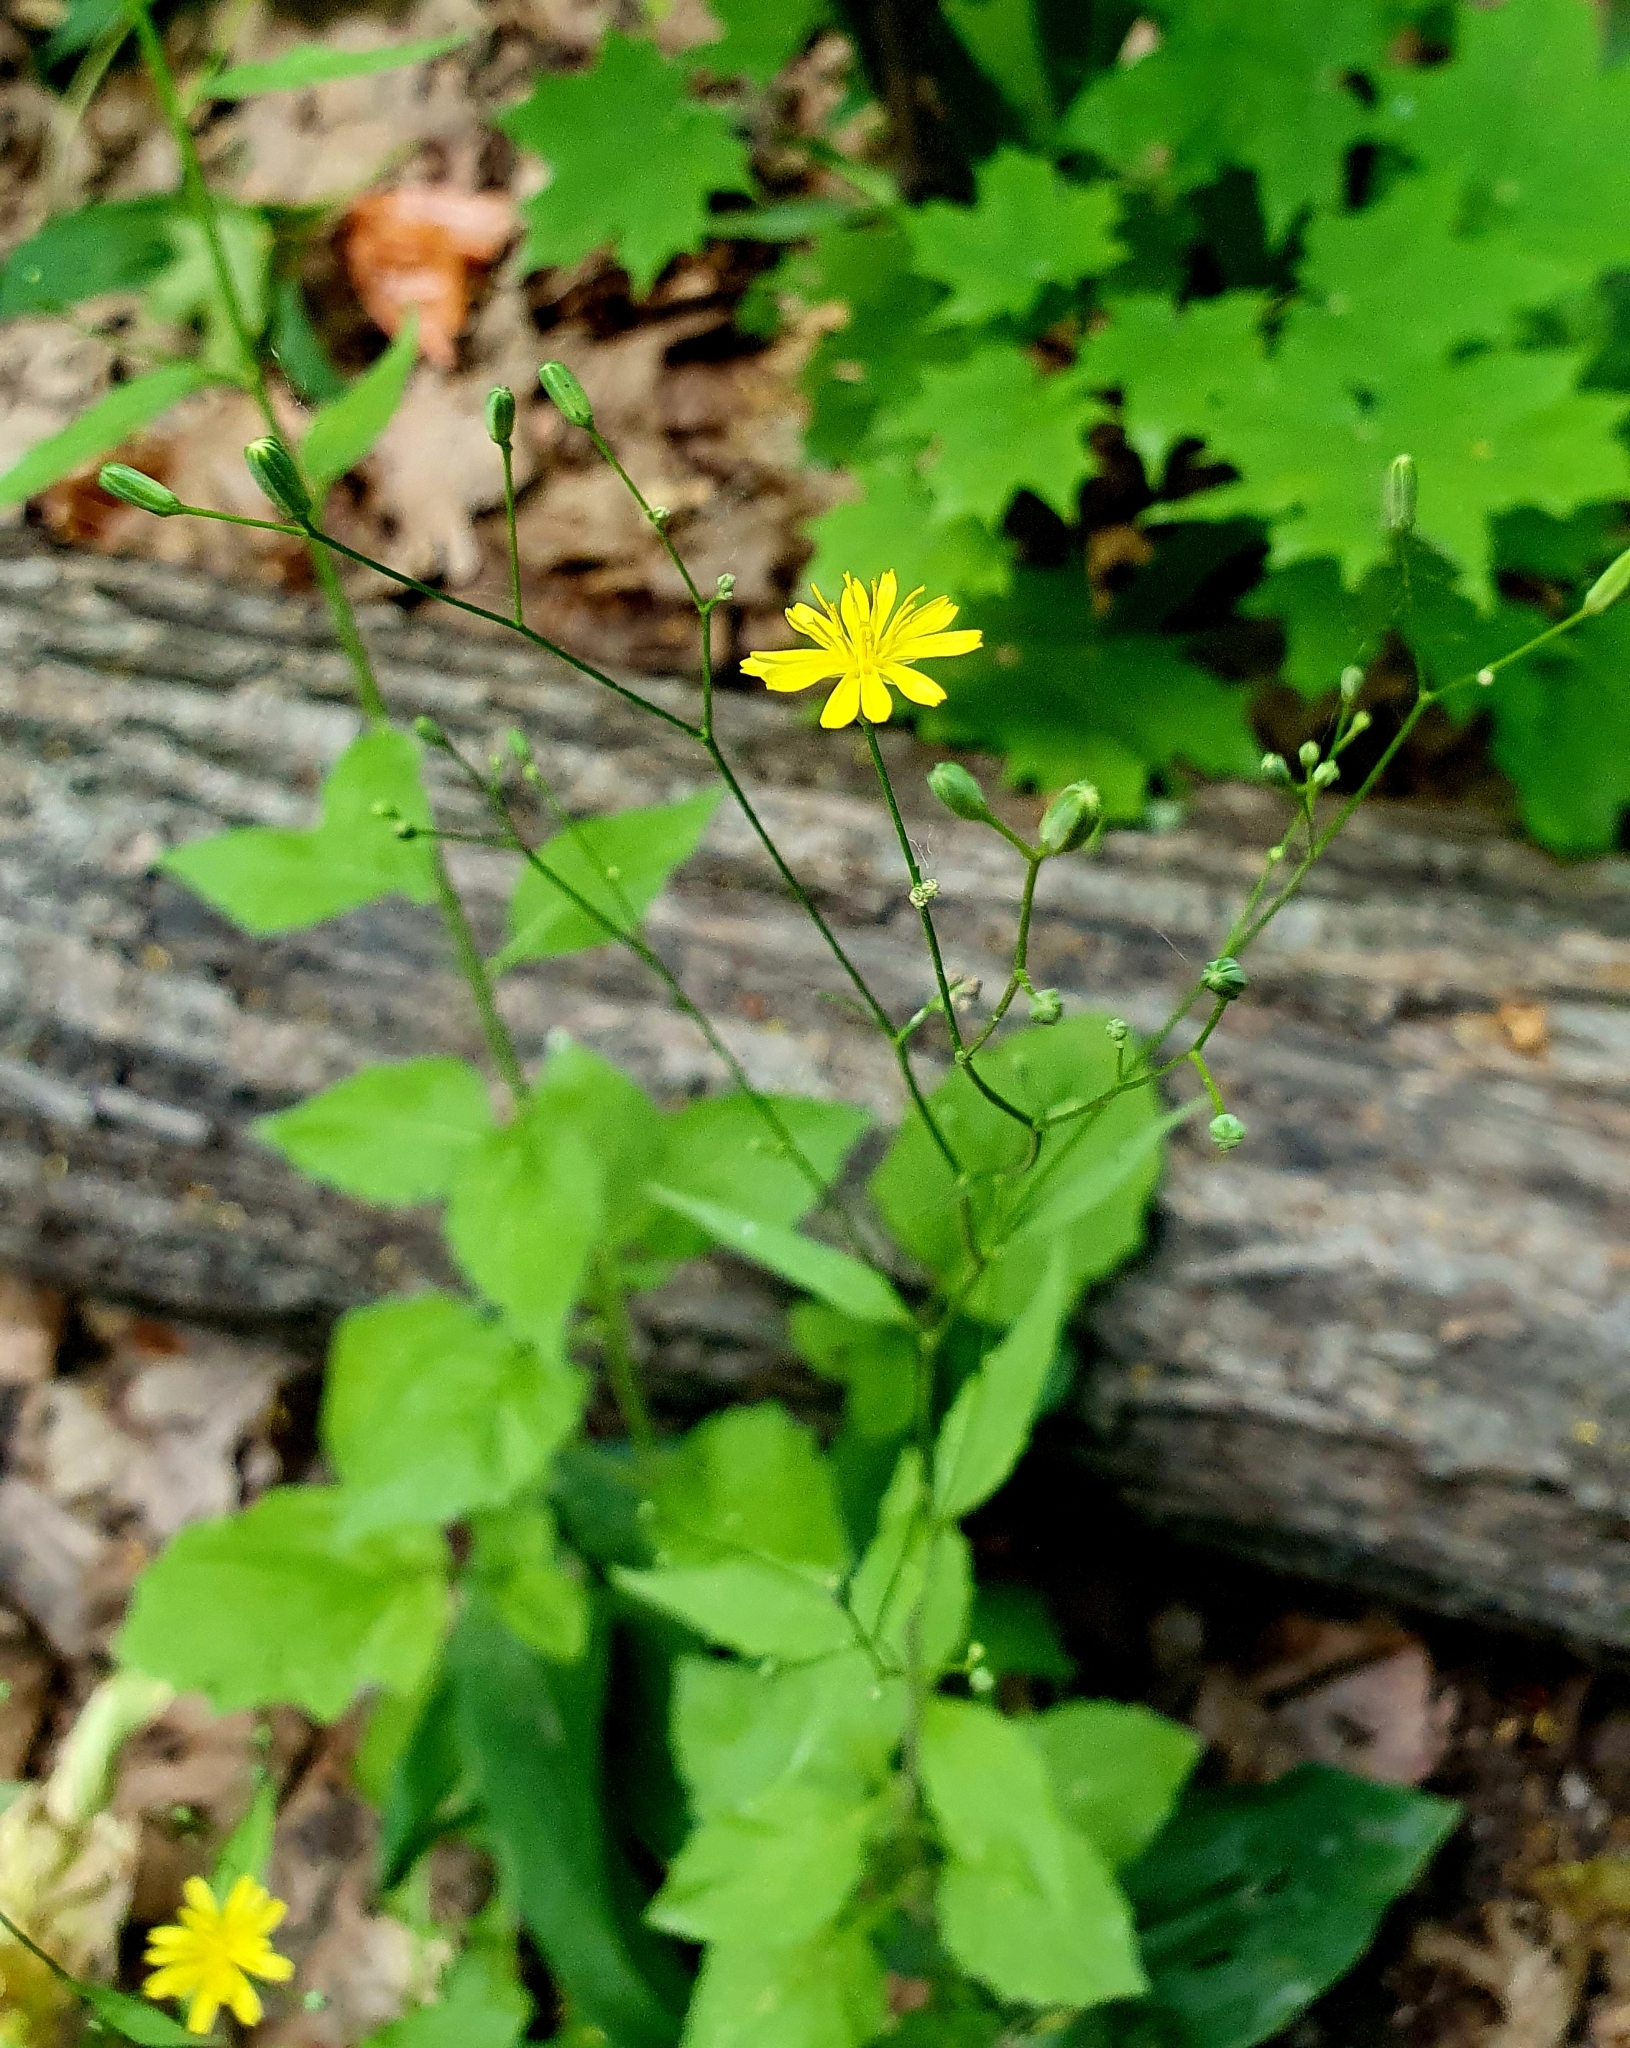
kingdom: Plantae
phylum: Tracheophyta
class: Magnoliopsida
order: Asterales
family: Asteraceae
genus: Lapsana
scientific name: Lapsana communis
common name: Nipplewort
